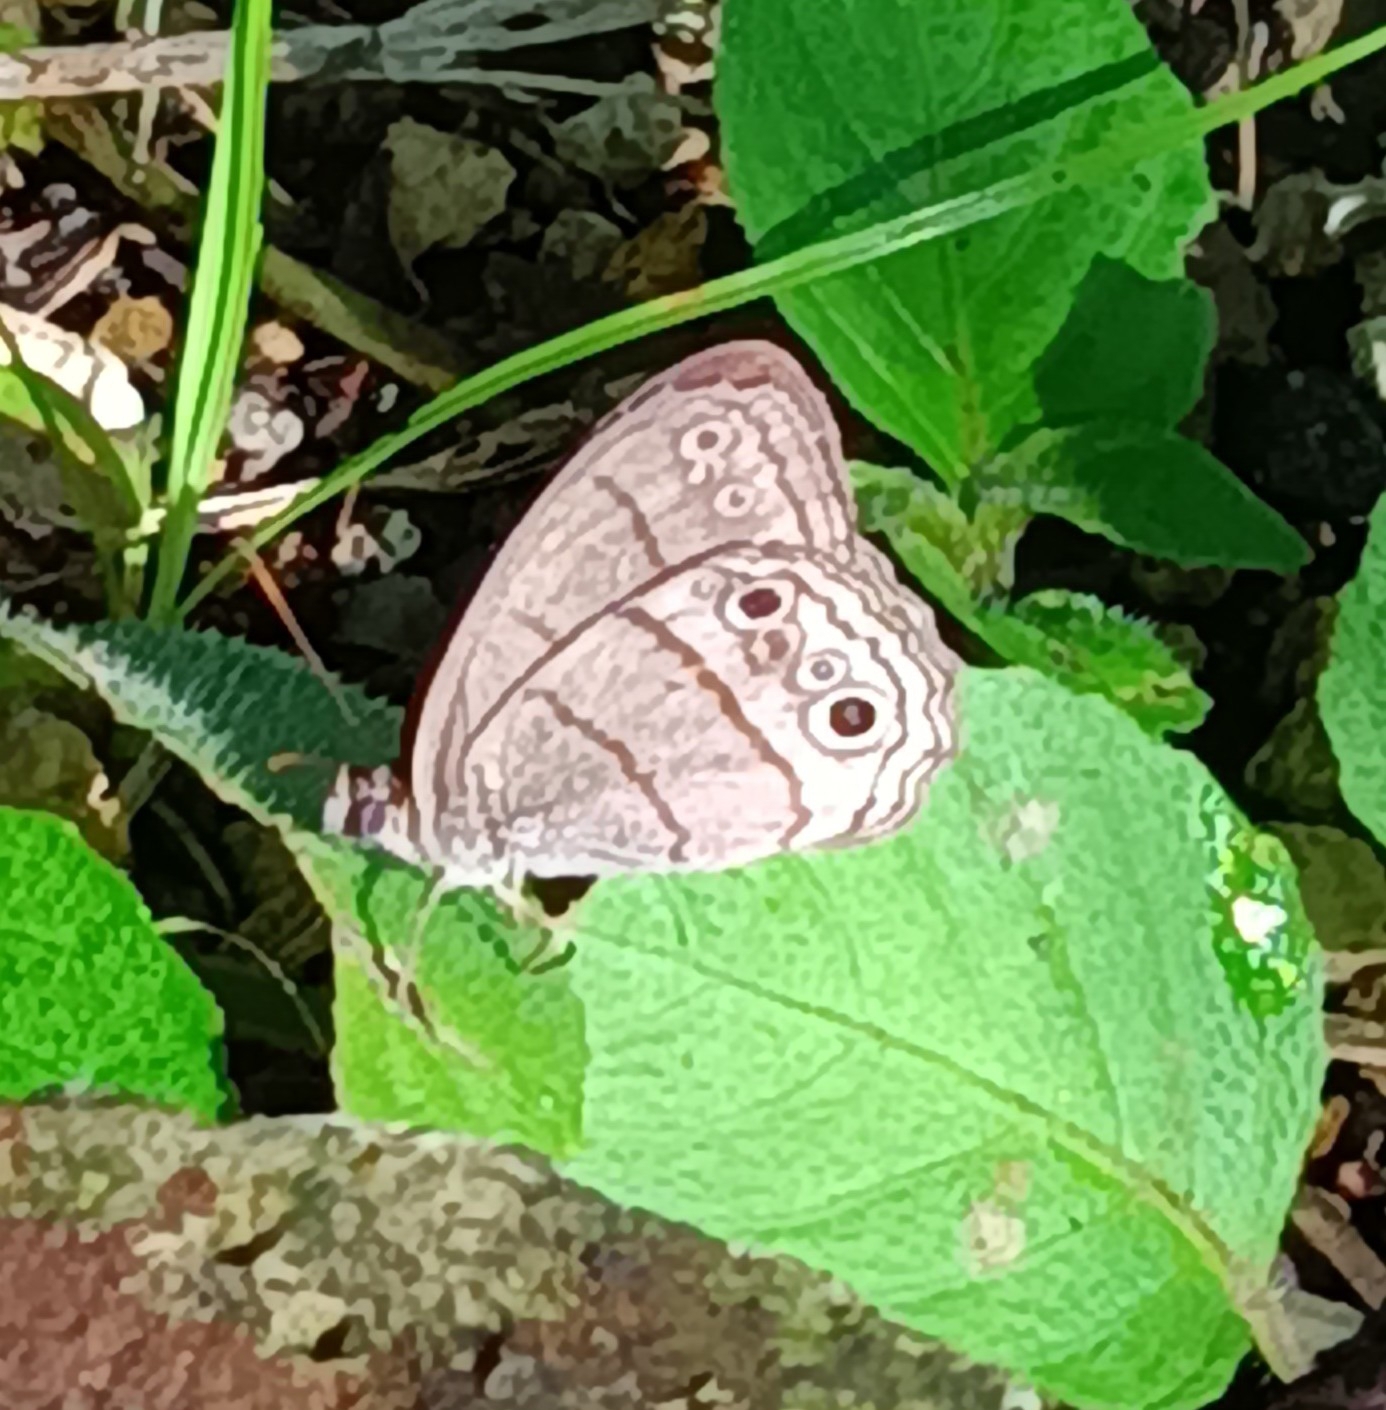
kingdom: Animalia
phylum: Arthropoda
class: Insecta
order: Lepidoptera
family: Nymphalidae
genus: Vareuptychia
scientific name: Vareuptychia similis
